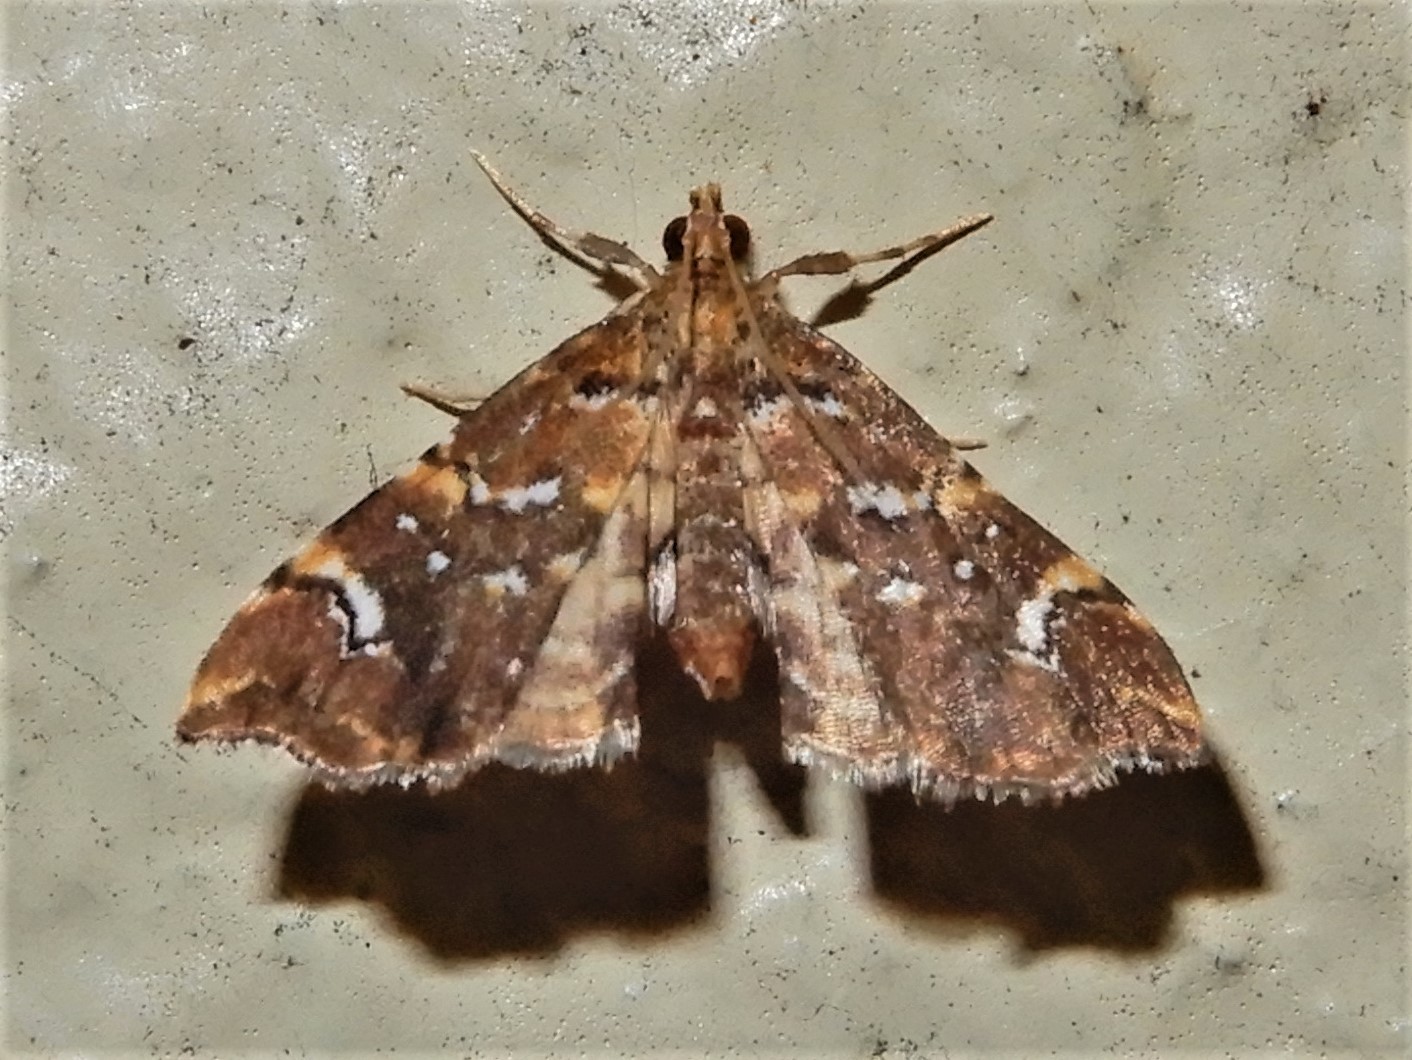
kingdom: Animalia
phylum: Arthropoda
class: Insecta
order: Lepidoptera
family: Pyralidae
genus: Musotima
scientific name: Musotima nitidalis
